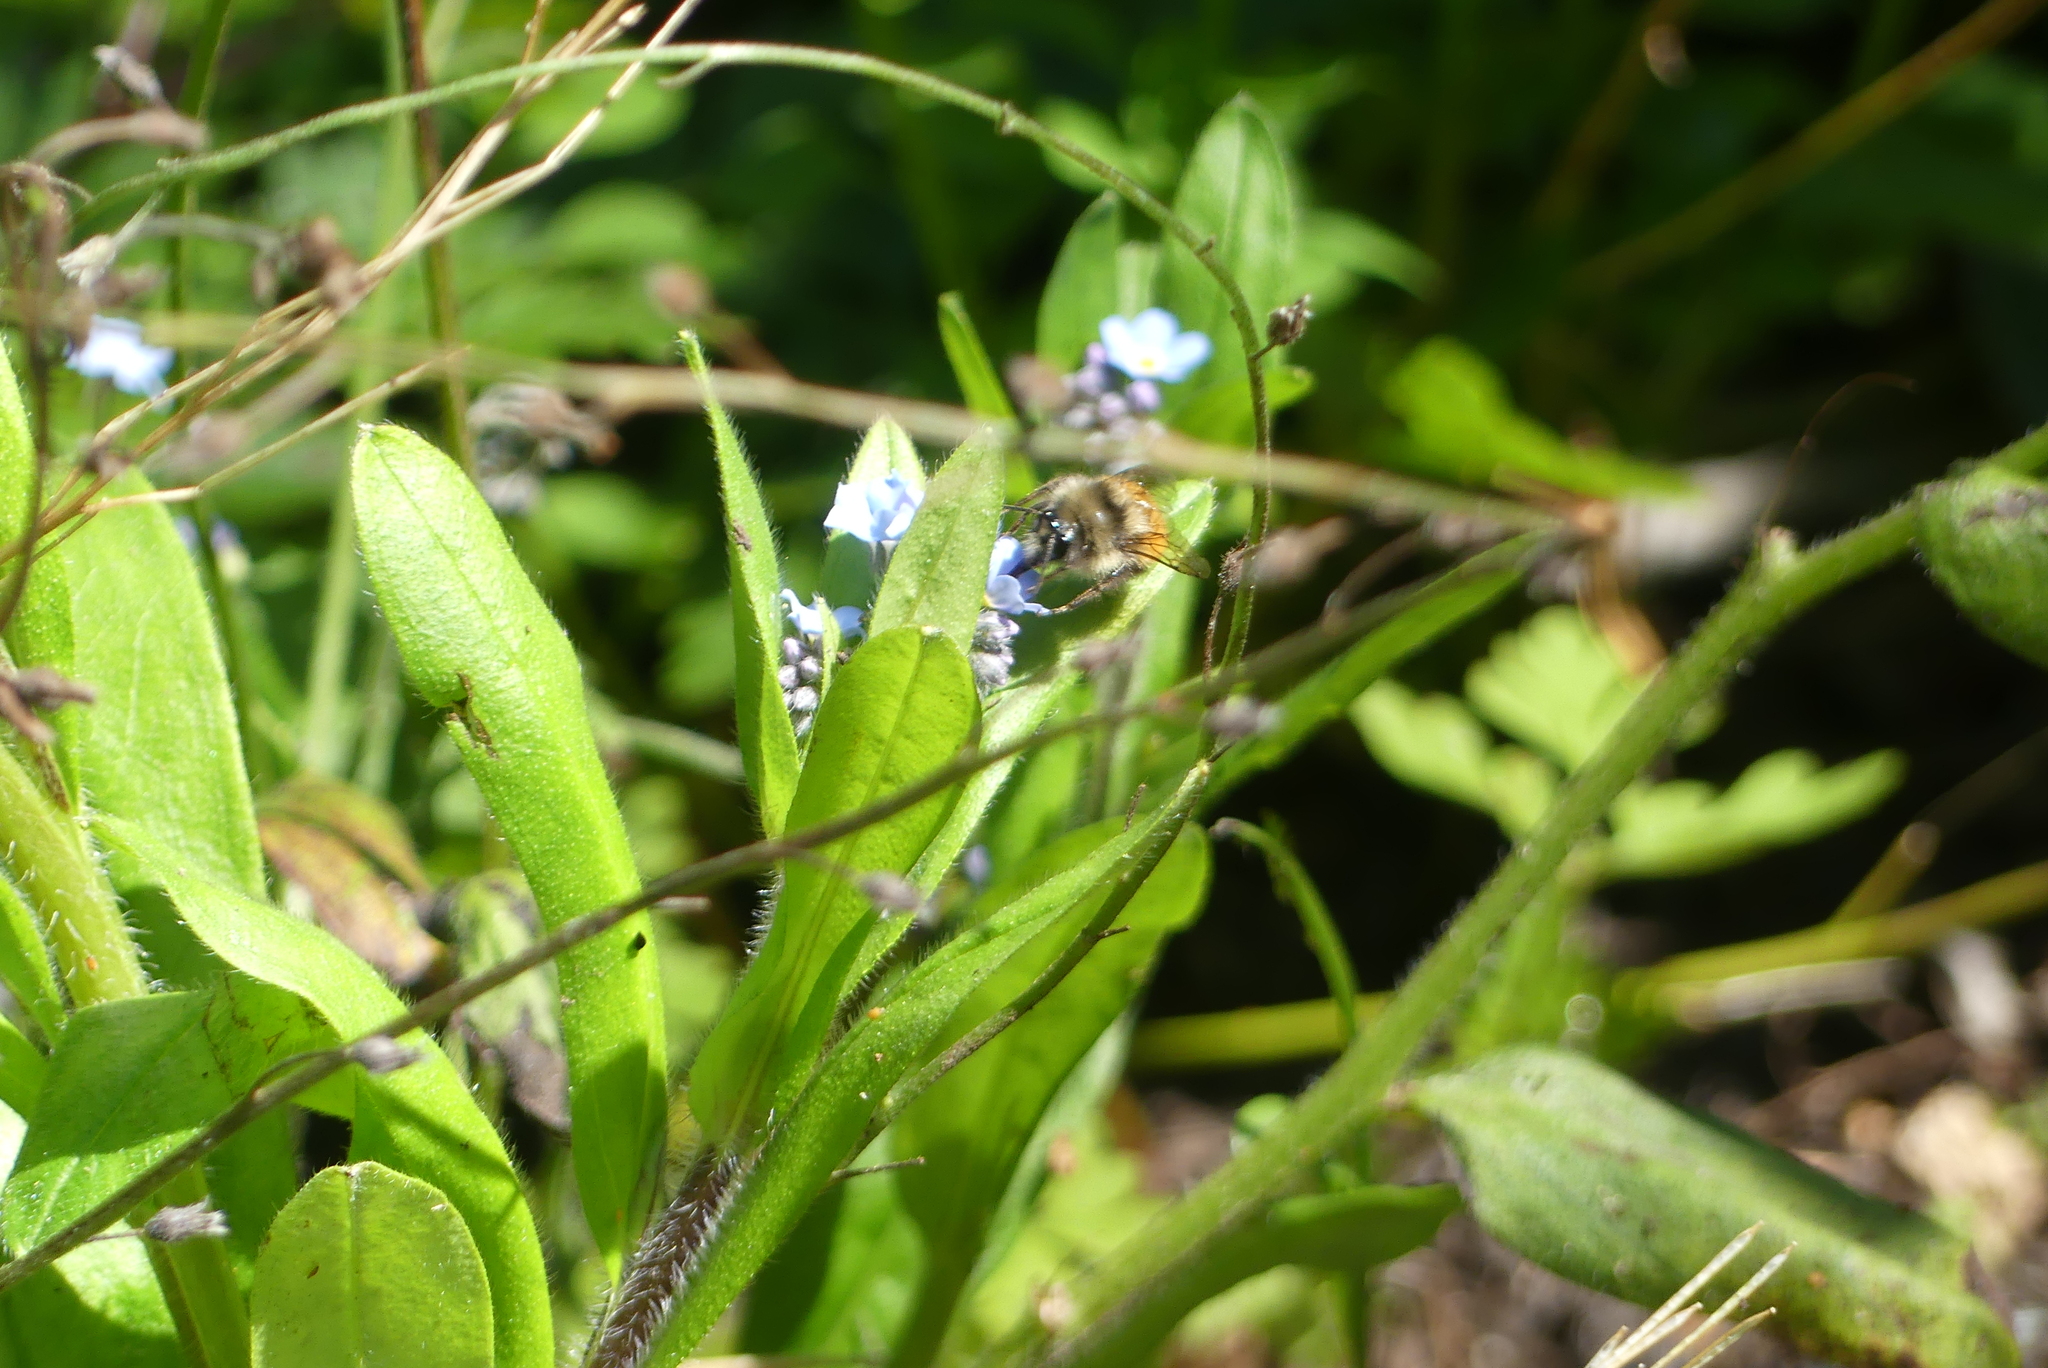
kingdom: Animalia
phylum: Arthropoda
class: Insecta
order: Hymenoptera
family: Apidae
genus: Bombus
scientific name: Bombus melanopygus
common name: Black tail bumble bee
